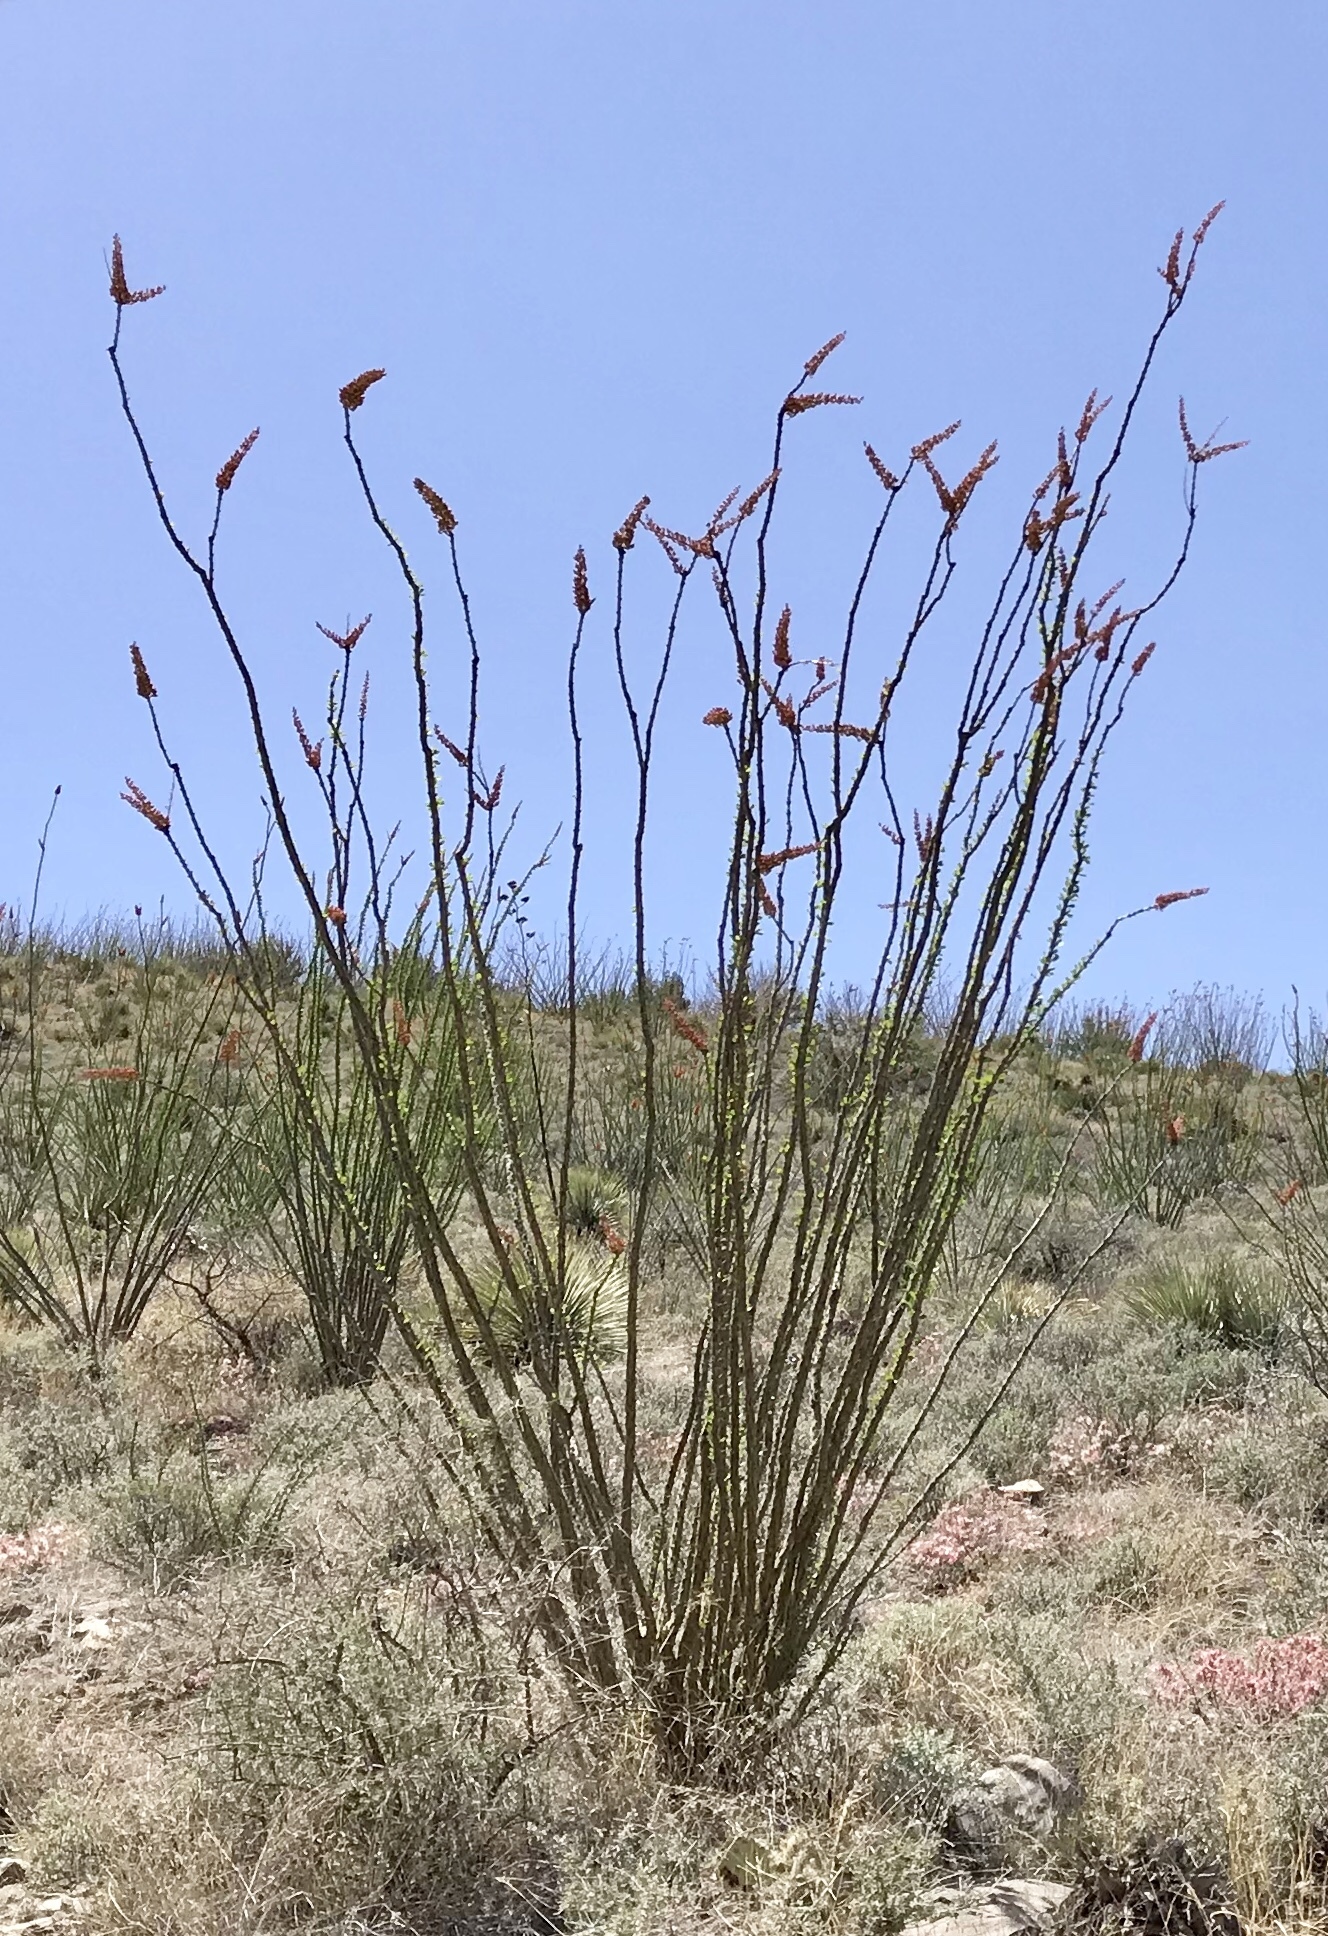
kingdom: Plantae
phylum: Tracheophyta
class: Magnoliopsida
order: Ericales
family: Fouquieriaceae
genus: Fouquieria
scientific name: Fouquieria splendens
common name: Vine-cactus
